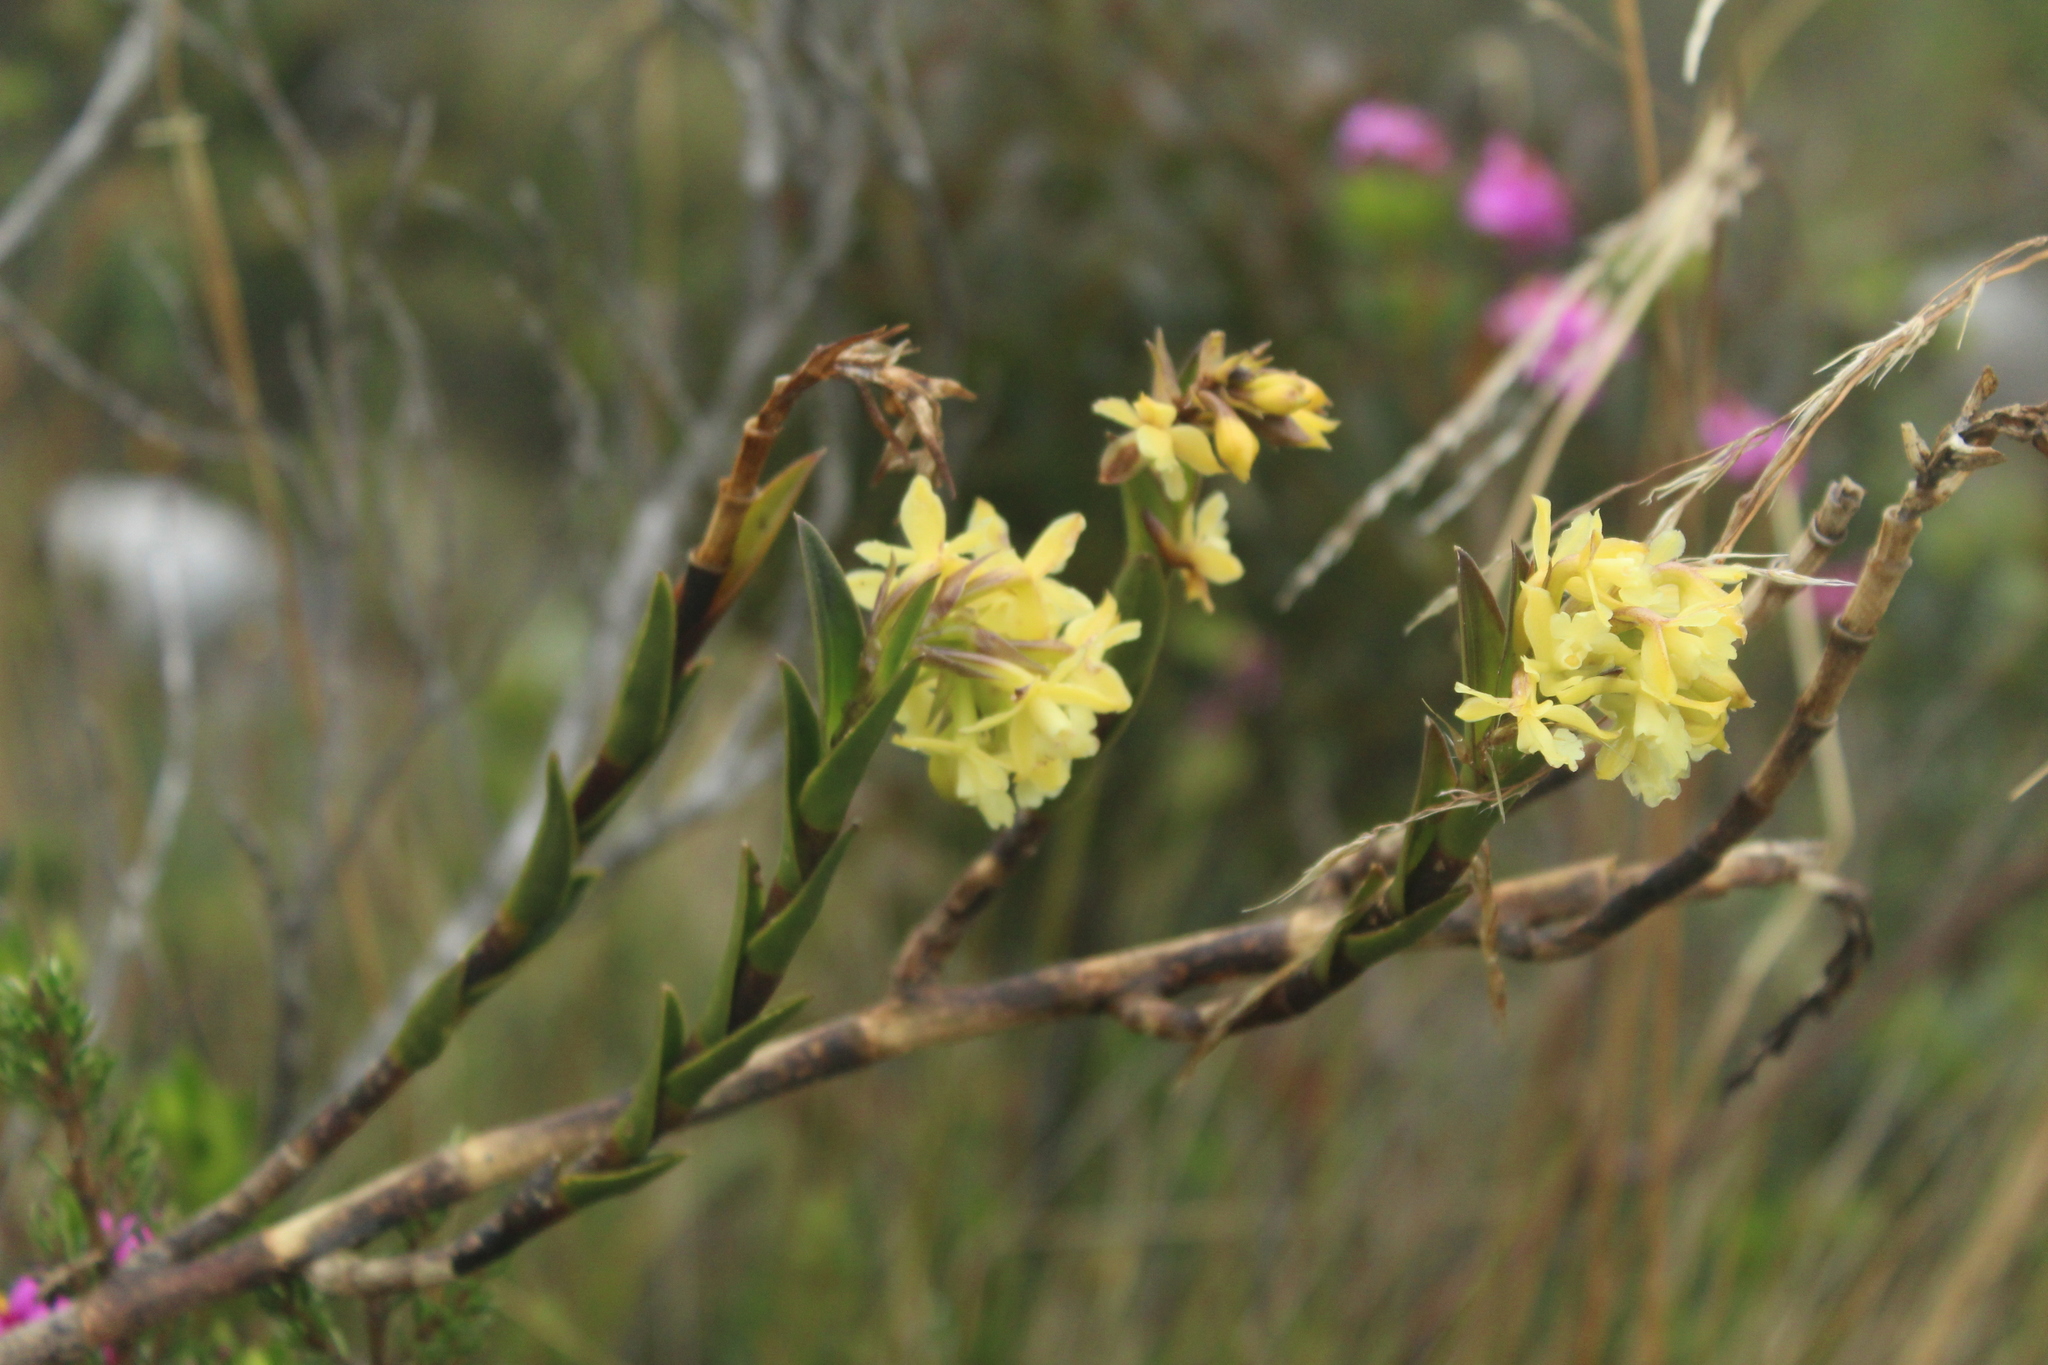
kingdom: Plantae
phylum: Tracheophyta
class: Liliopsida
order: Asparagales
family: Orchidaceae
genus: Epidendrum
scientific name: Epidendrum zipaquiranum
